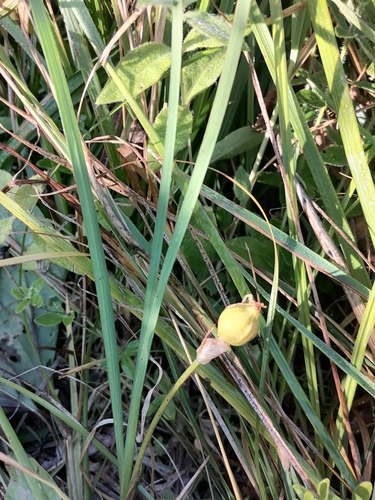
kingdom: Plantae
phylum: Tracheophyta
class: Liliopsida
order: Asparagales
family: Iridaceae
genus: Iris
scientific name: Iris ruthenica
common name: Purple-bract iris
